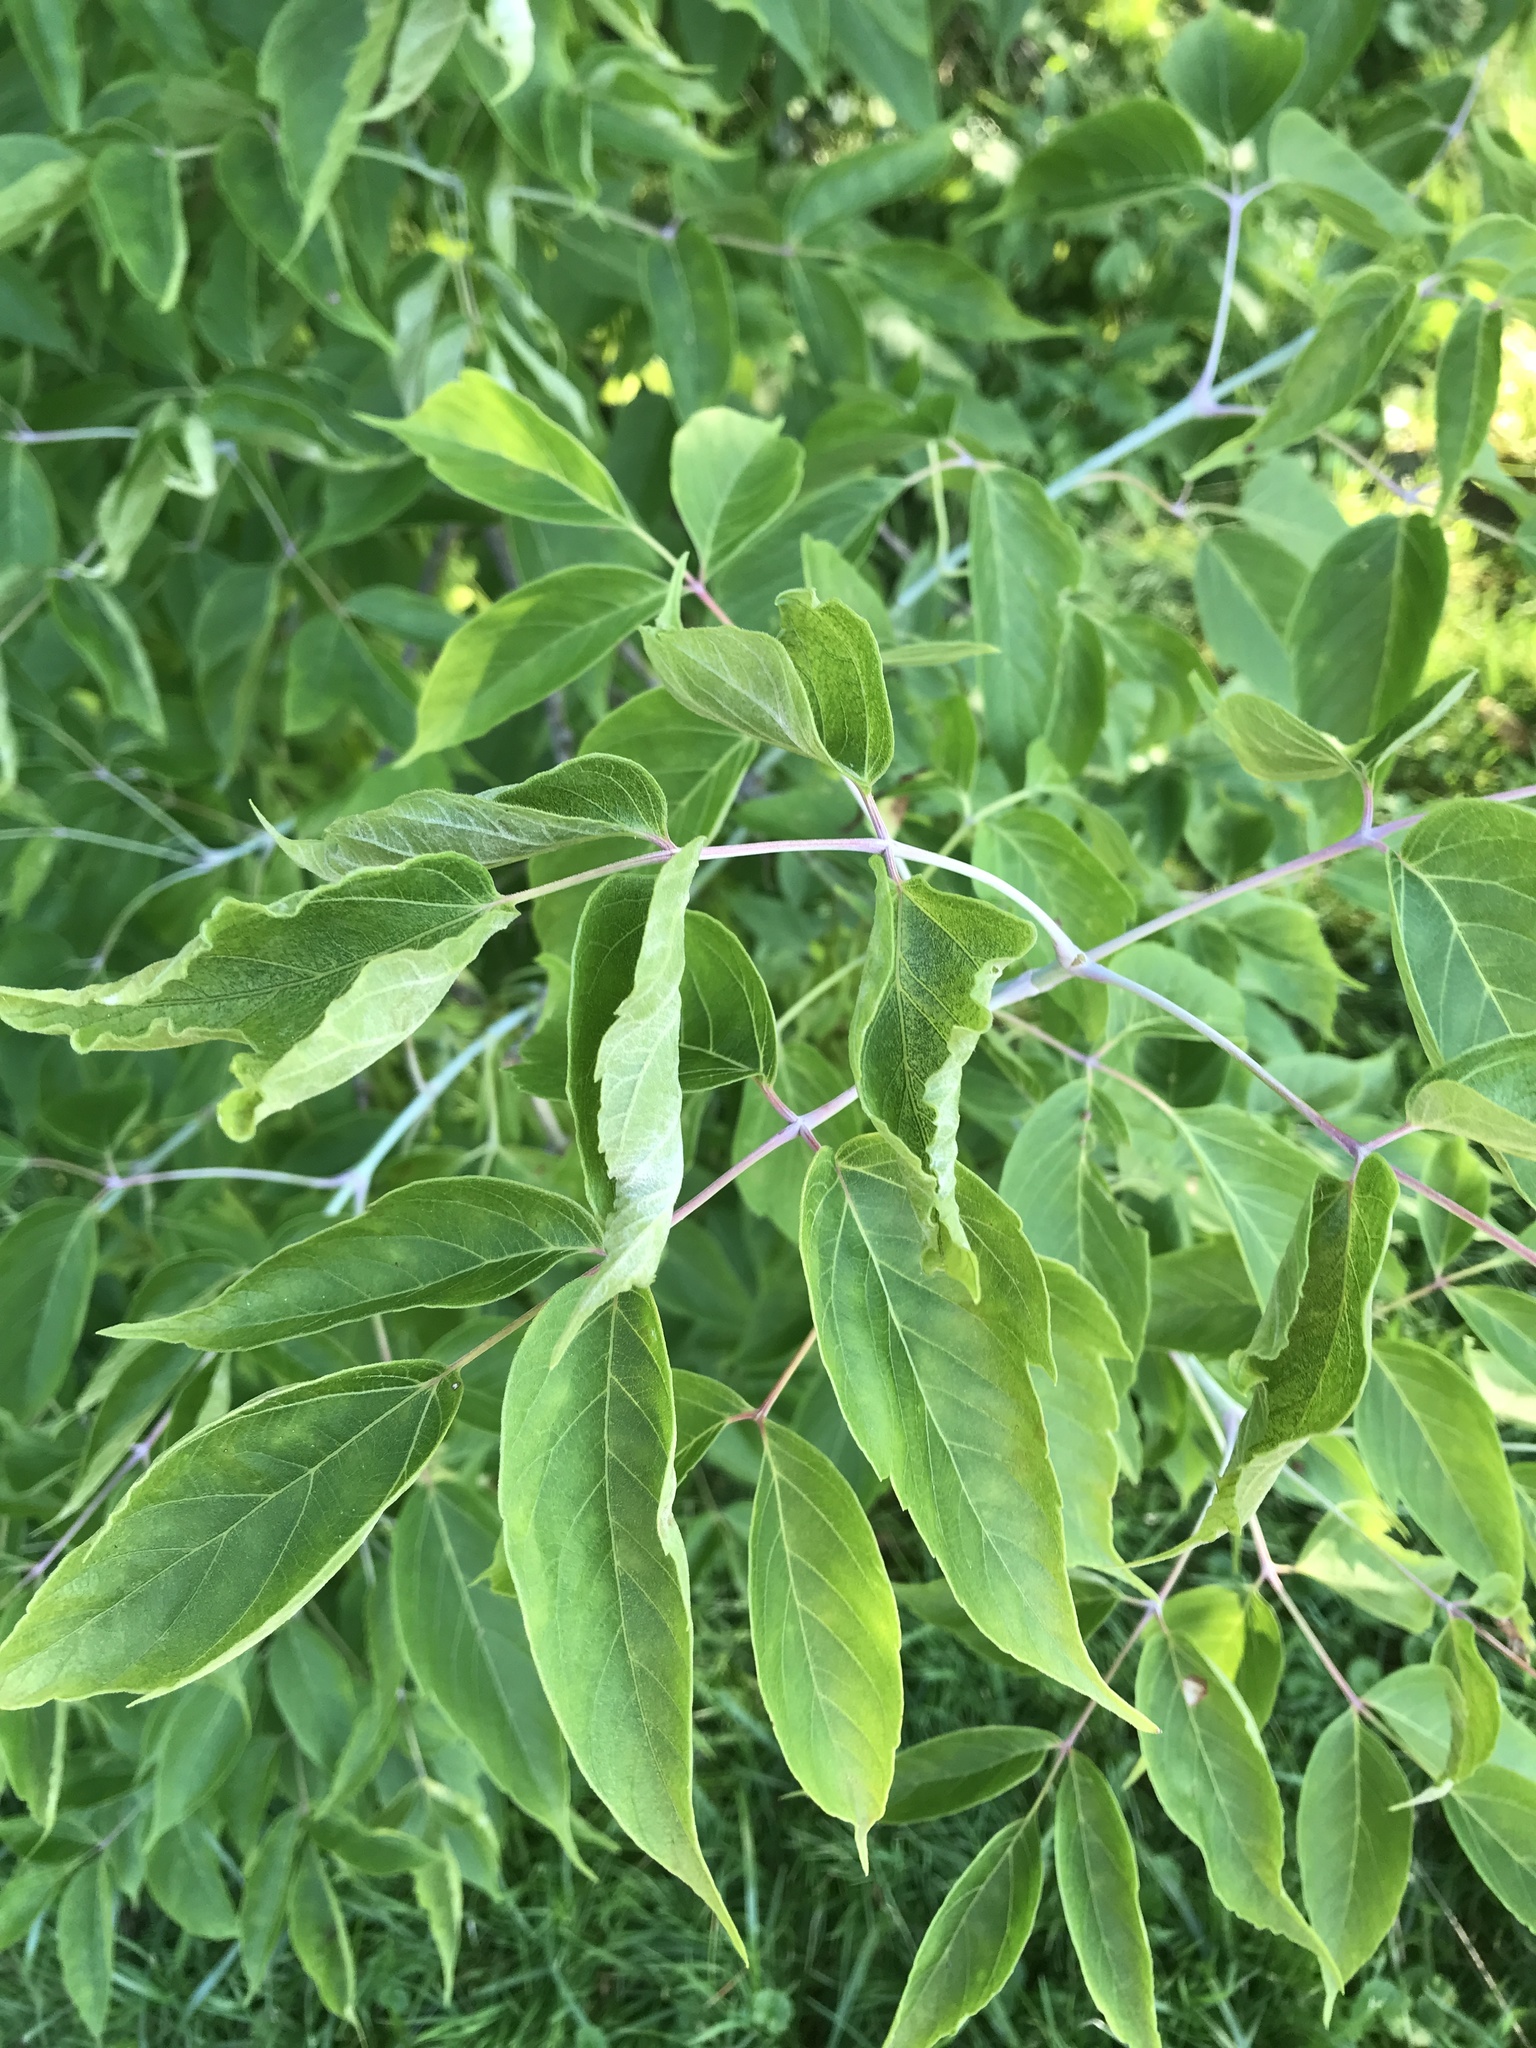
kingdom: Plantae
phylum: Tracheophyta
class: Magnoliopsida
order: Sapindales
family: Sapindaceae
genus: Acer
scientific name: Acer negundo
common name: Ashleaf maple
